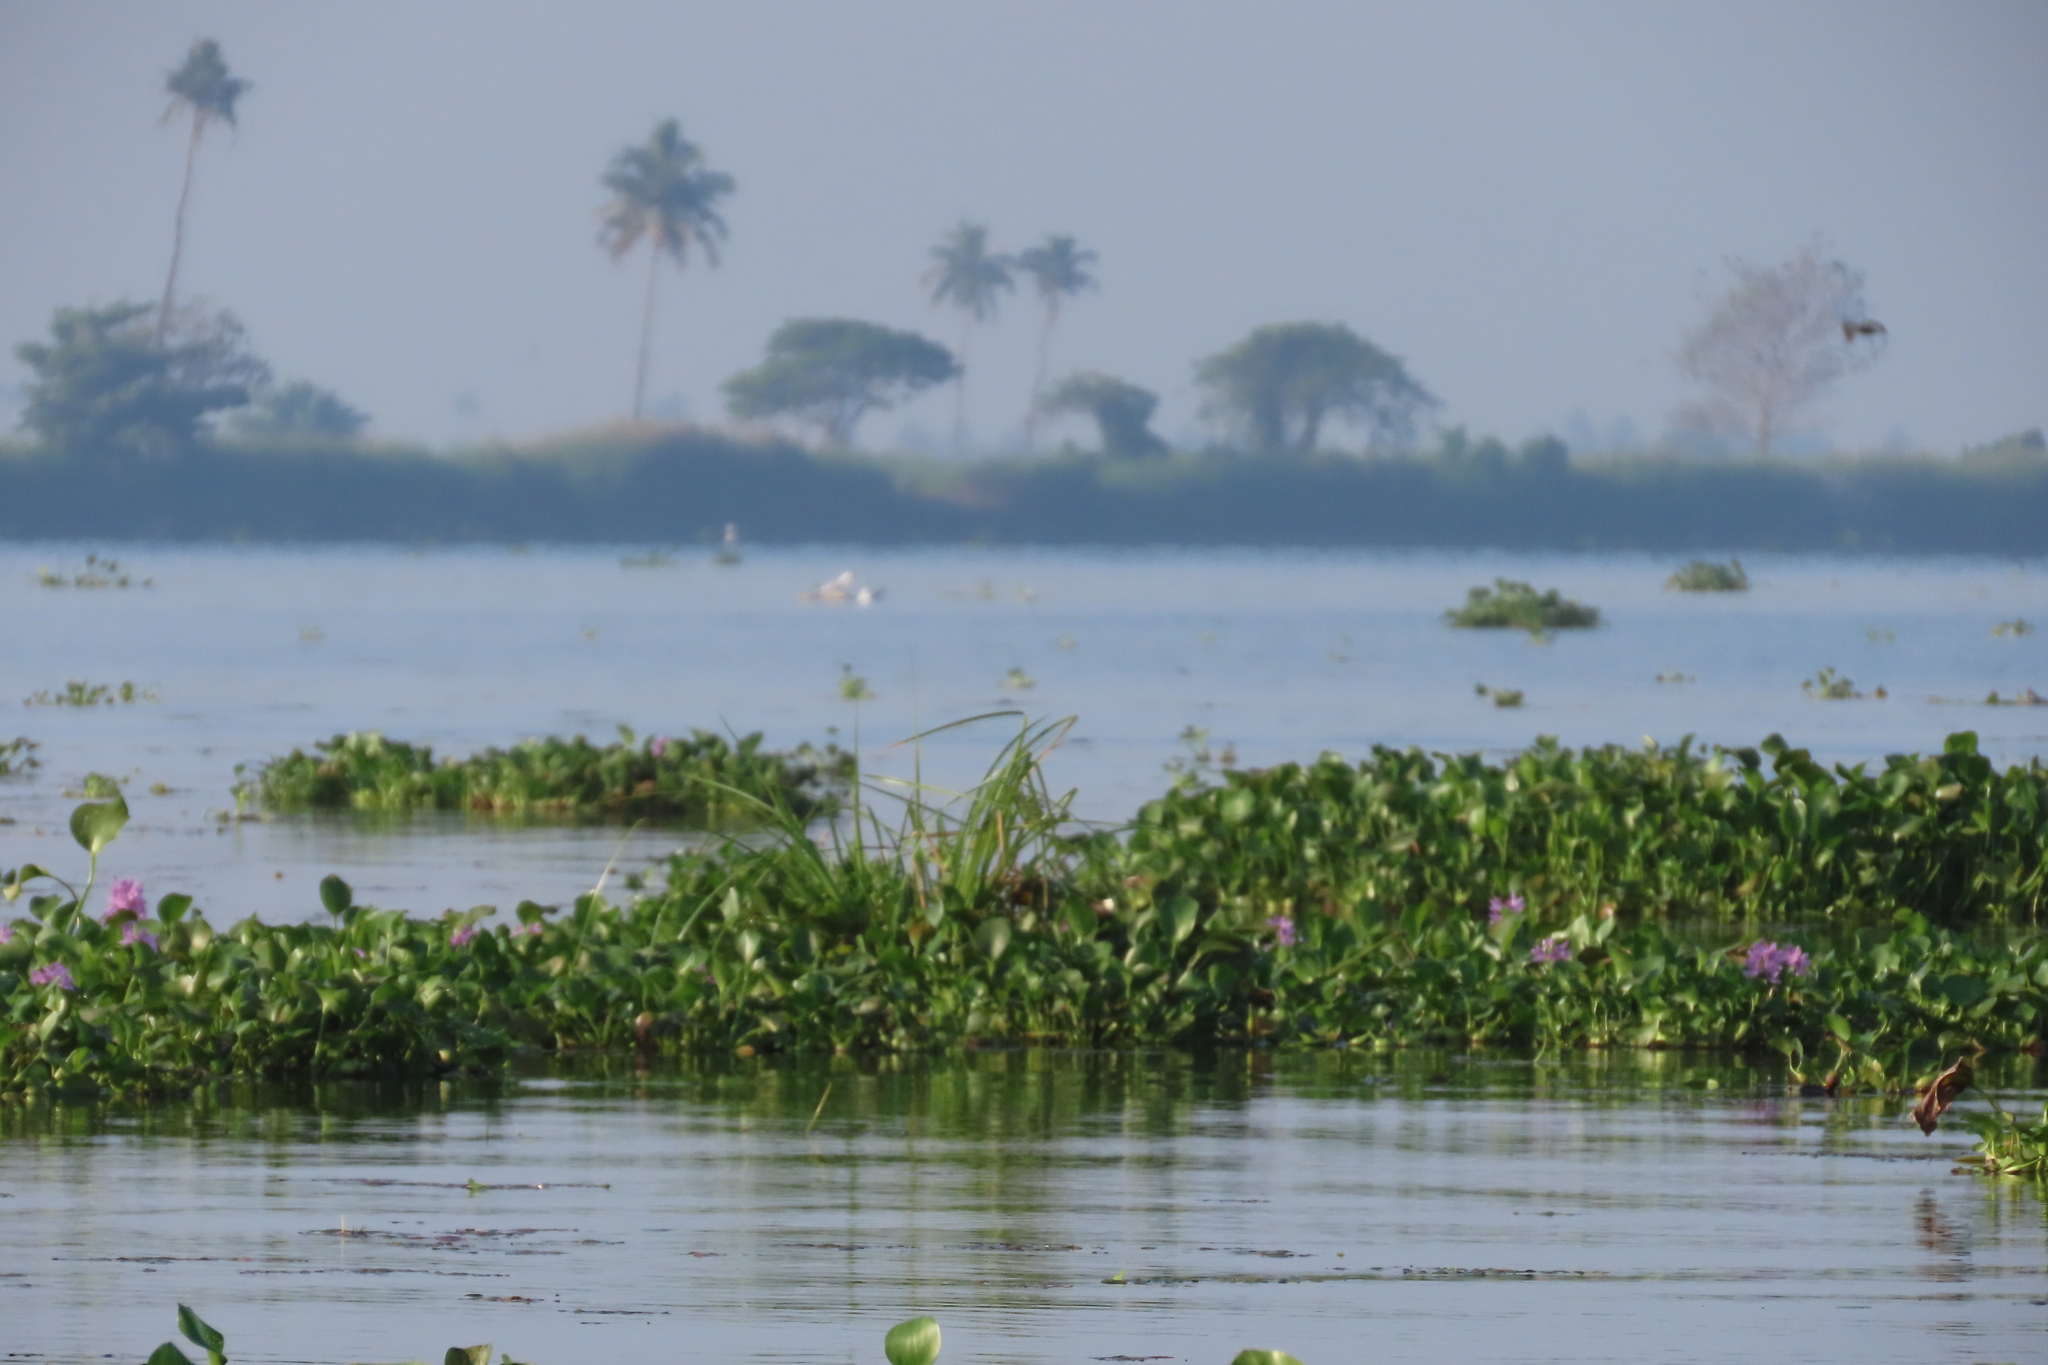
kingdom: Plantae
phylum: Tracheophyta
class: Liliopsida
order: Commelinales
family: Pontederiaceae
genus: Pontederia
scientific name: Pontederia crassipes
